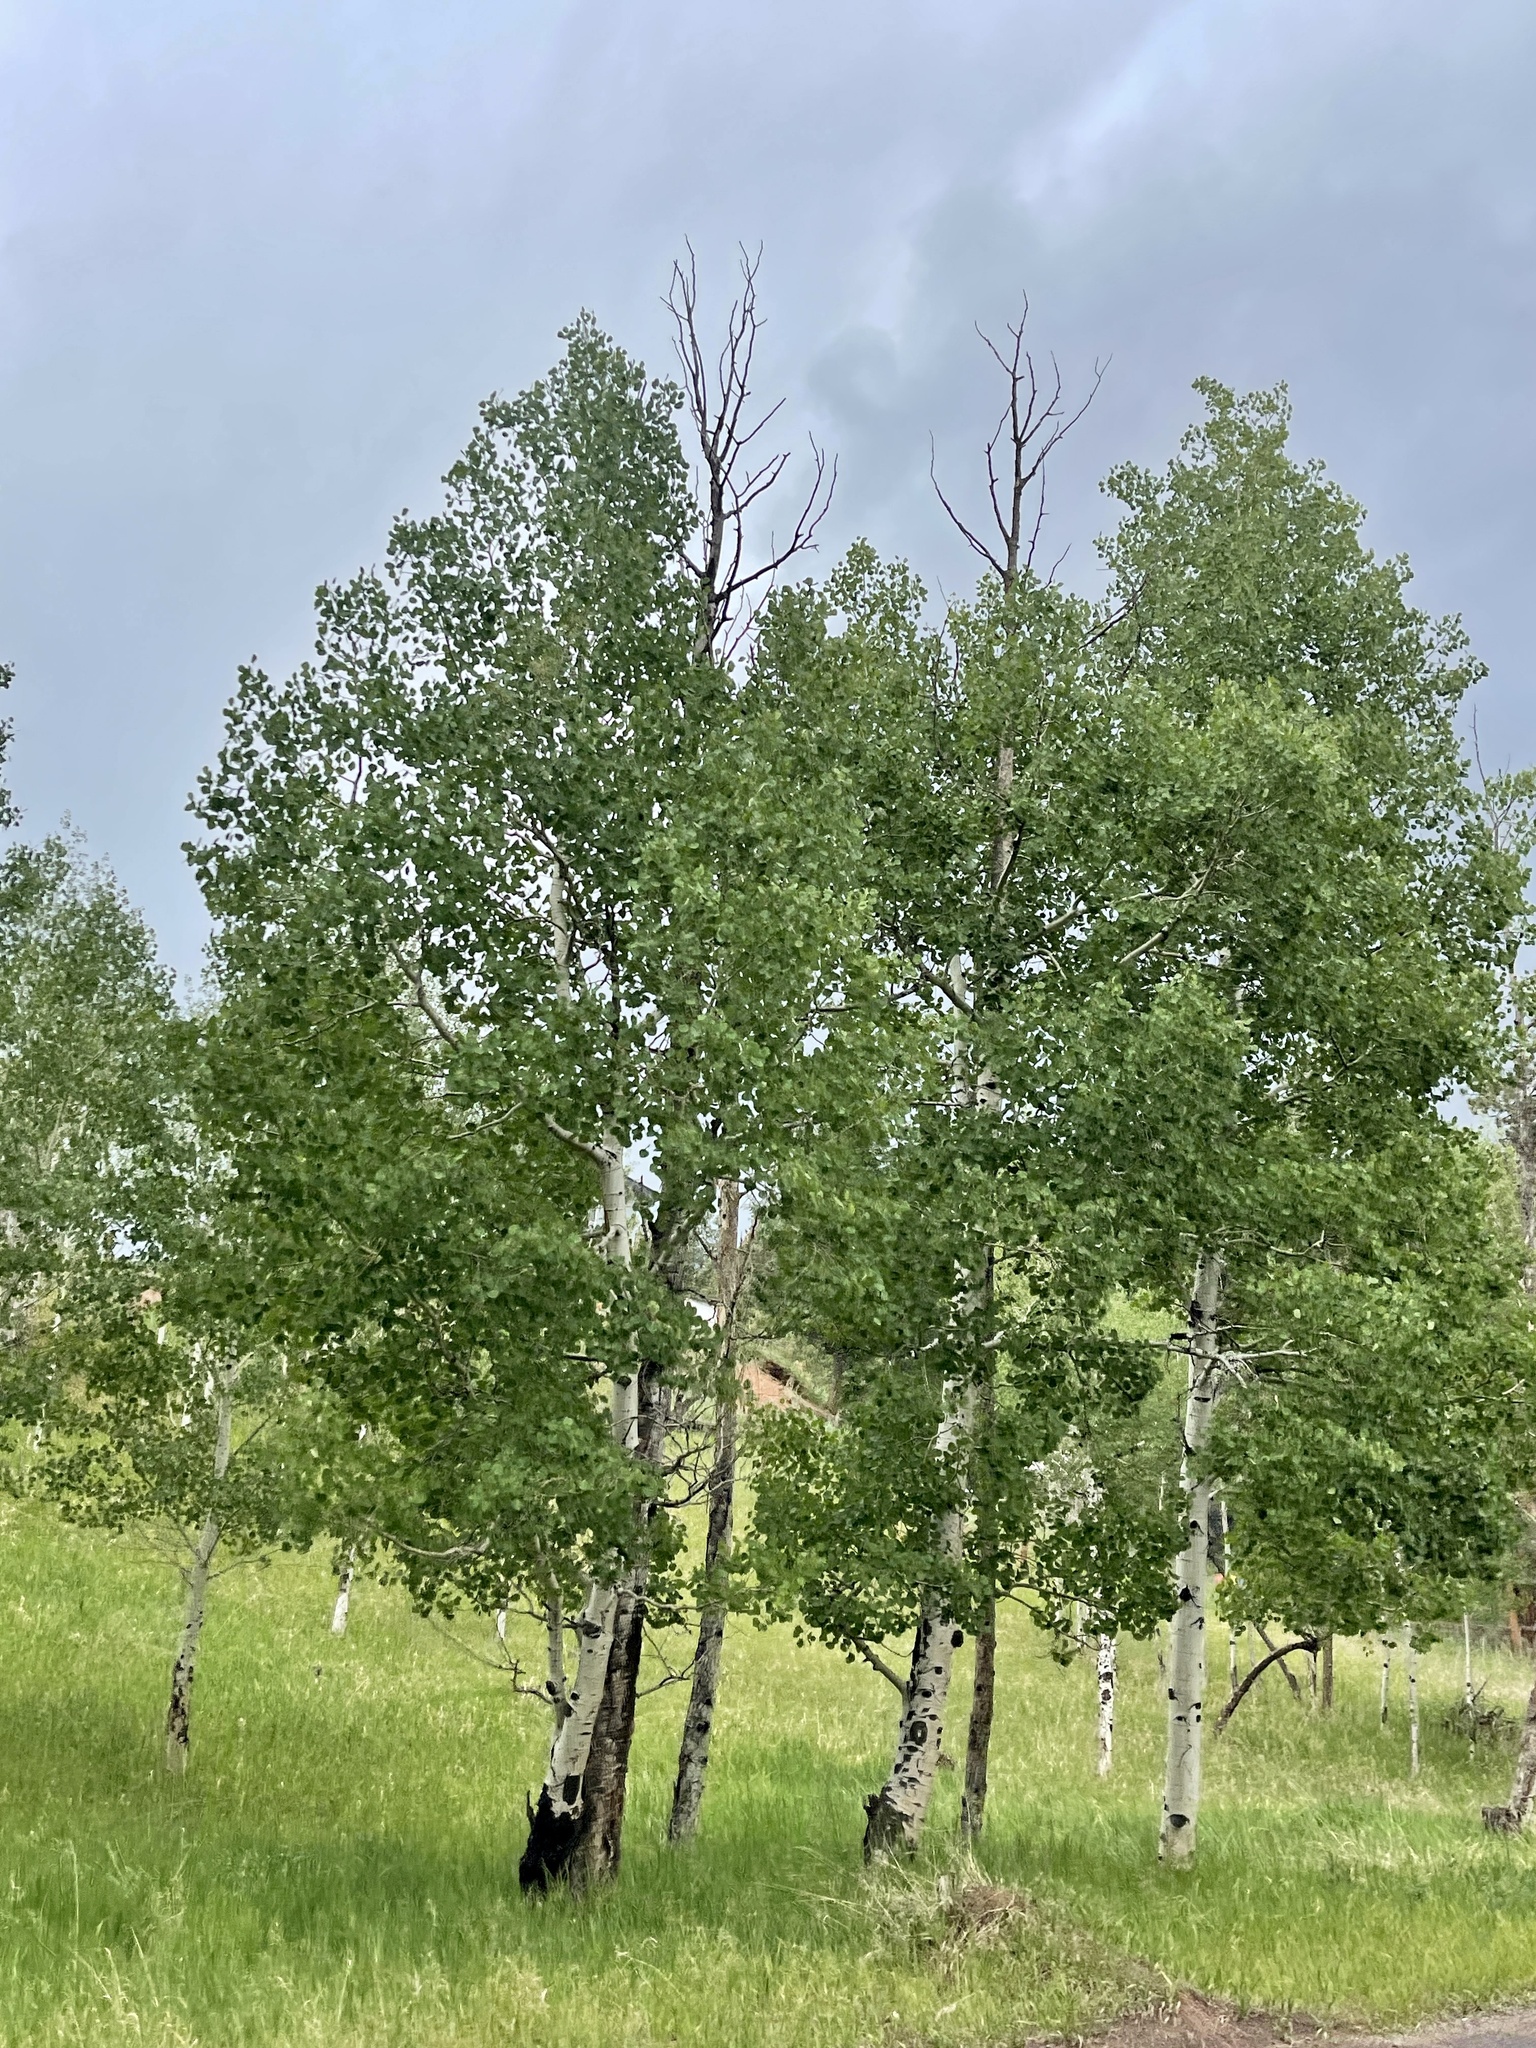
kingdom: Plantae
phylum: Tracheophyta
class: Magnoliopsida
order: Malpighiales
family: Salicaceae
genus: Populus
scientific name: Populus tremuloides
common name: Quaking aspen
